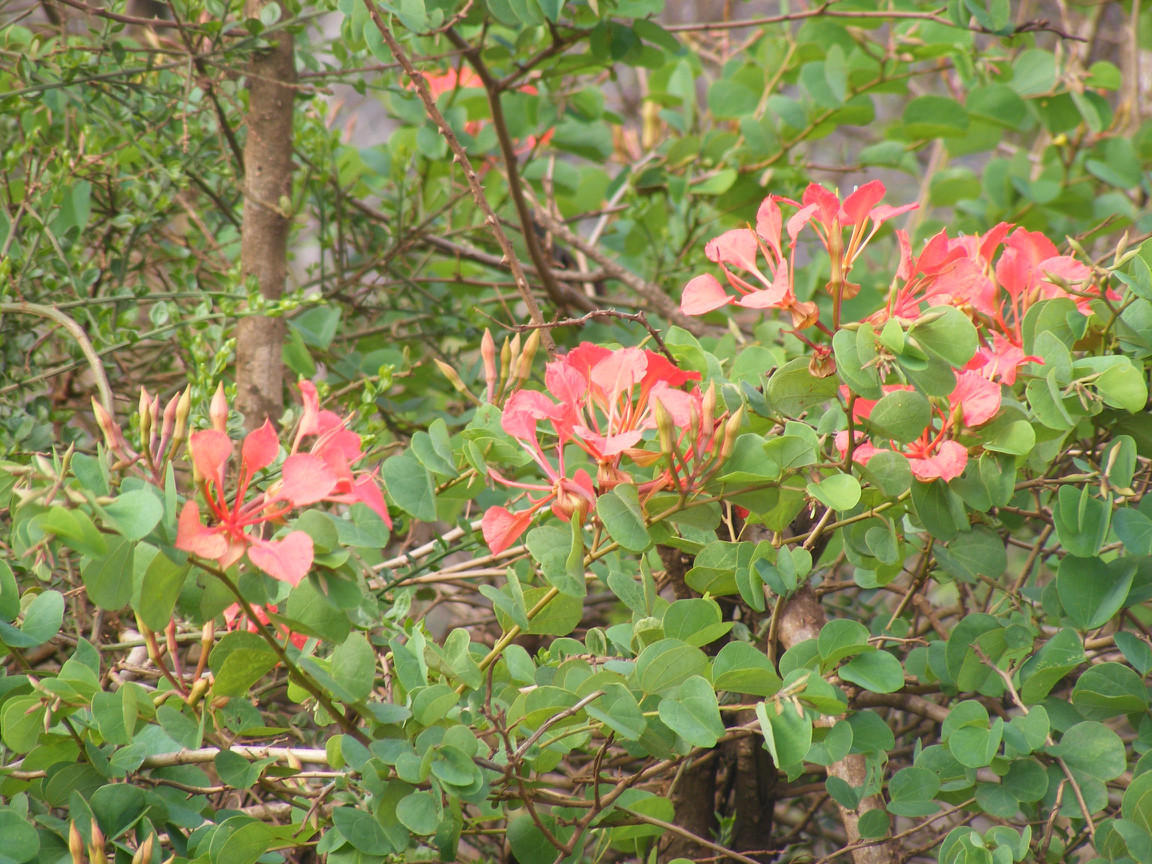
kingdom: Plantae
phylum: Tracheophyta
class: Magnoliopsida
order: Fabales
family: Fabaceae
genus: Bauhinia
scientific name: Bauhinia galpinii
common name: African plume
